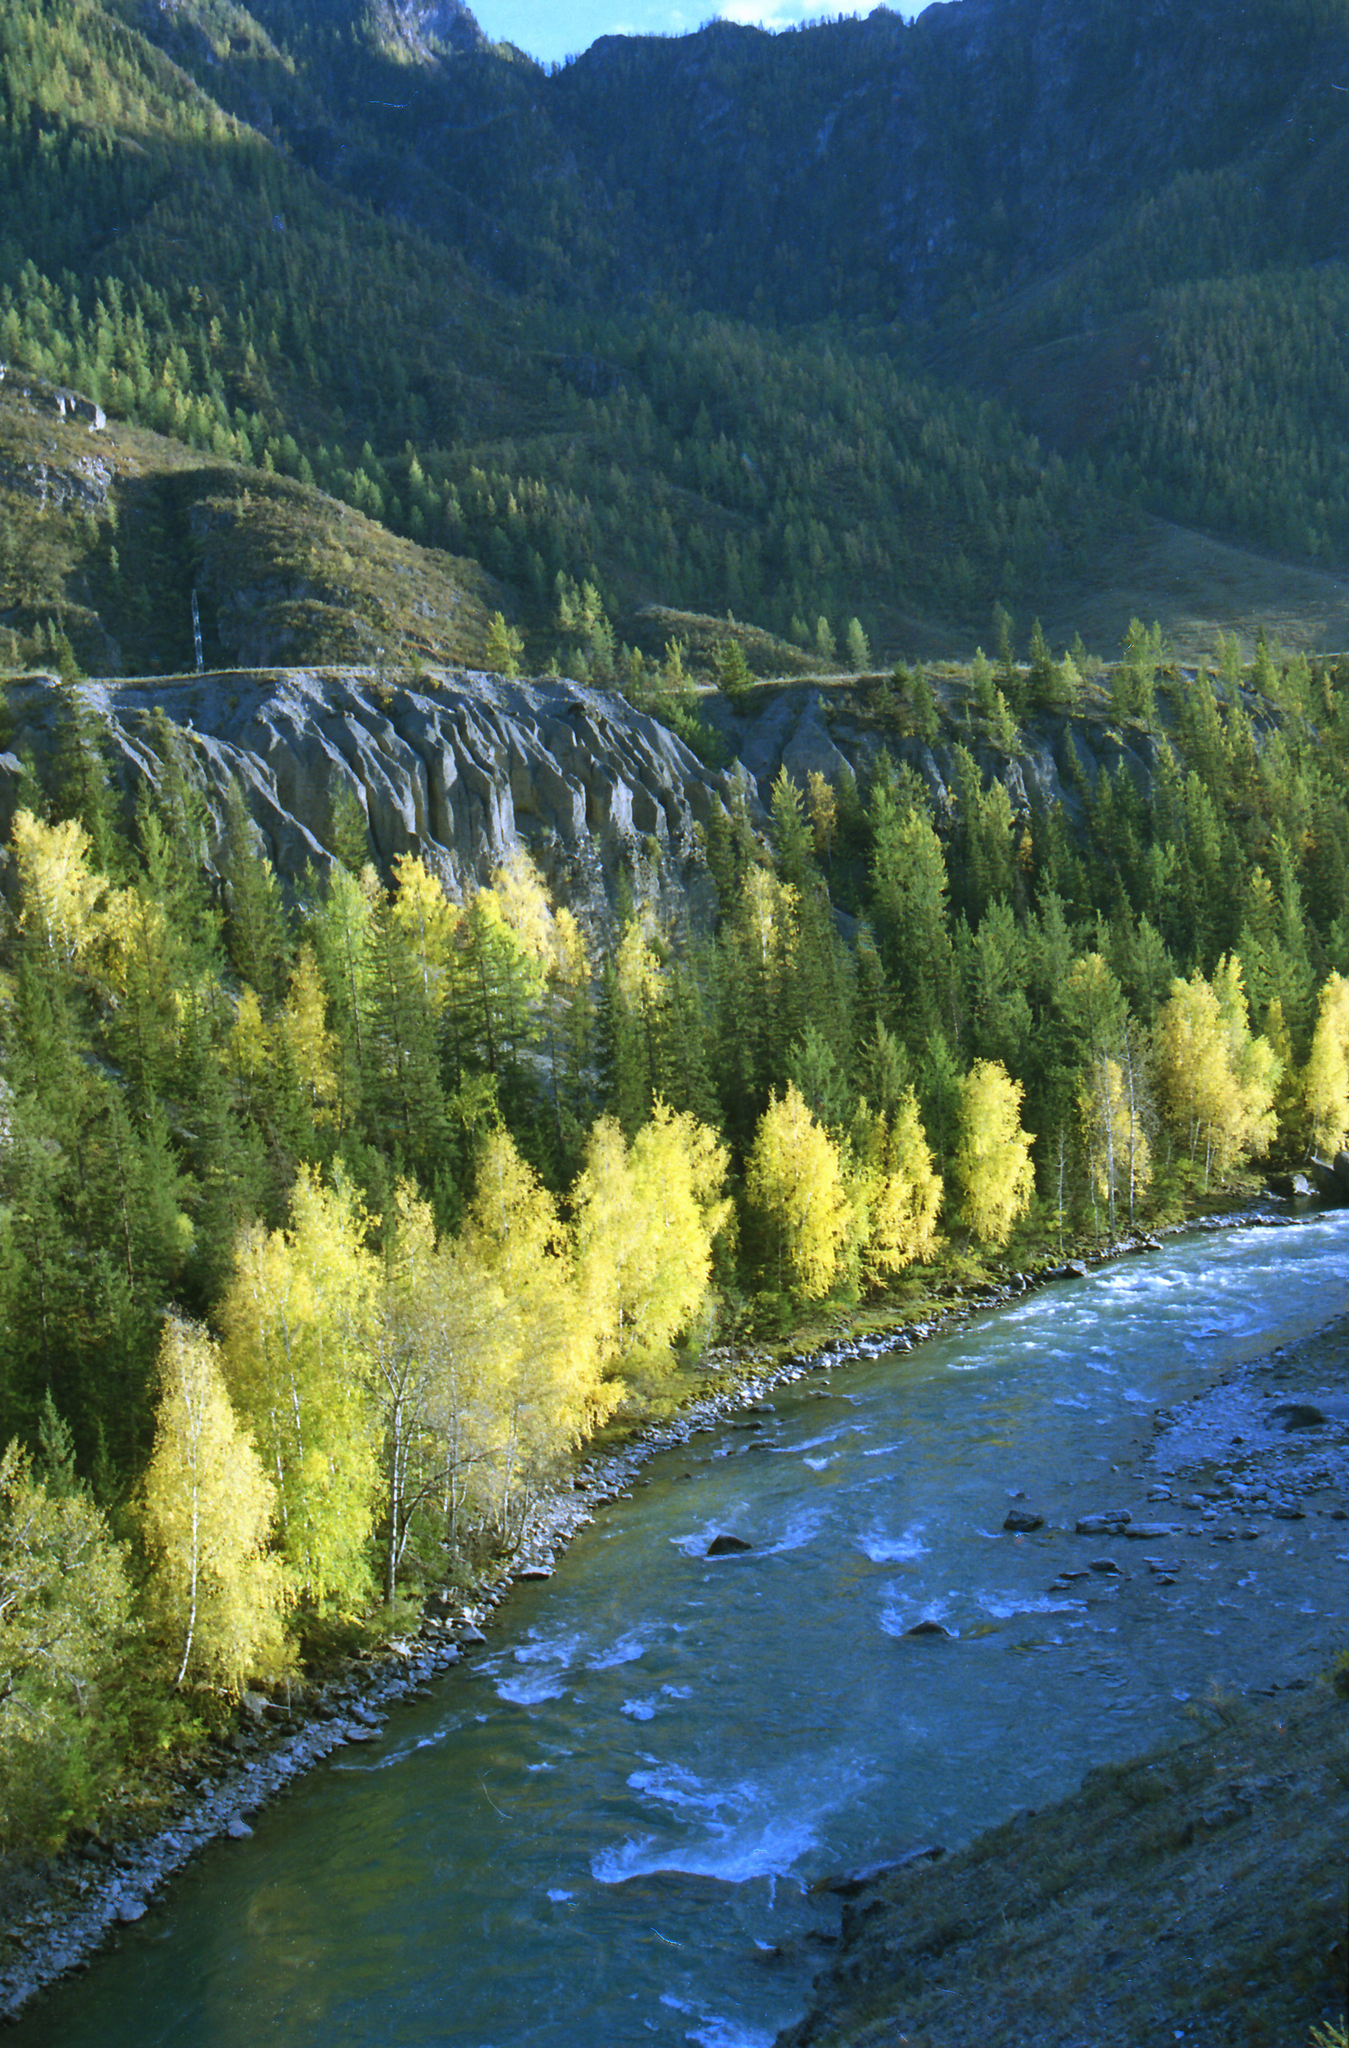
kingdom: Plantae
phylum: Tracheophyta
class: Pinopsida
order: Pinales
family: Pinaceae
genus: Picea
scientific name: Picea obovata
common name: Siberian spruce
